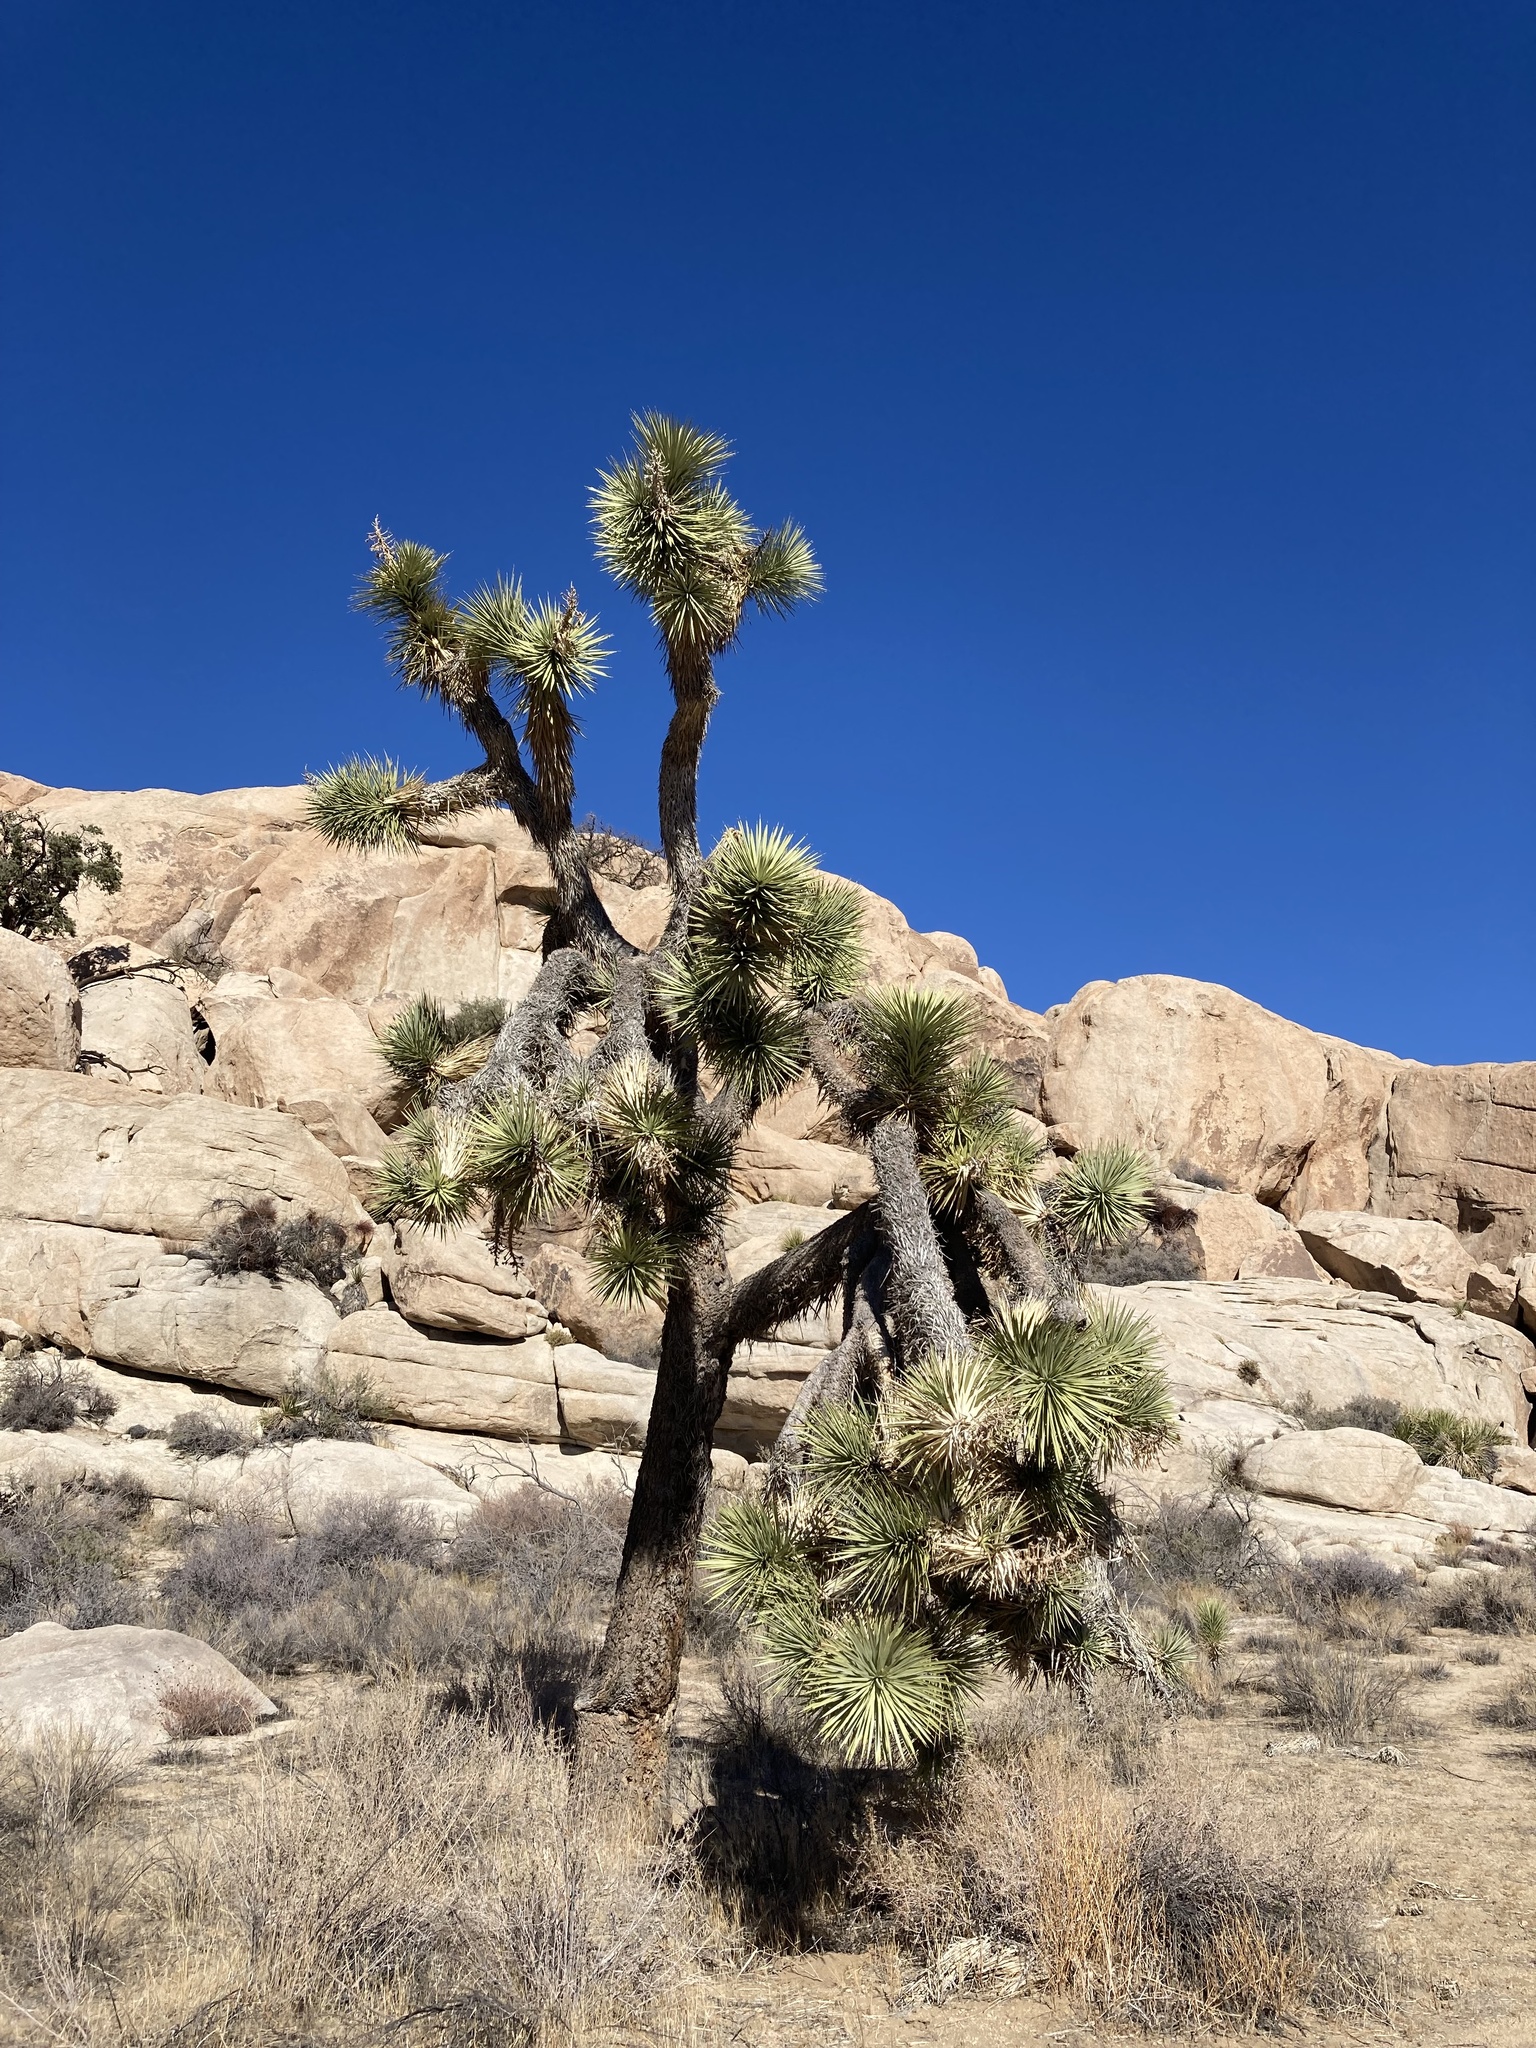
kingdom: Plantae
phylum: Tracheophyta
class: Liliopsida
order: Asparagales
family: Asparagaceae
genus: Yucca
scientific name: Yucca brevifolia
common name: Joshua tree
